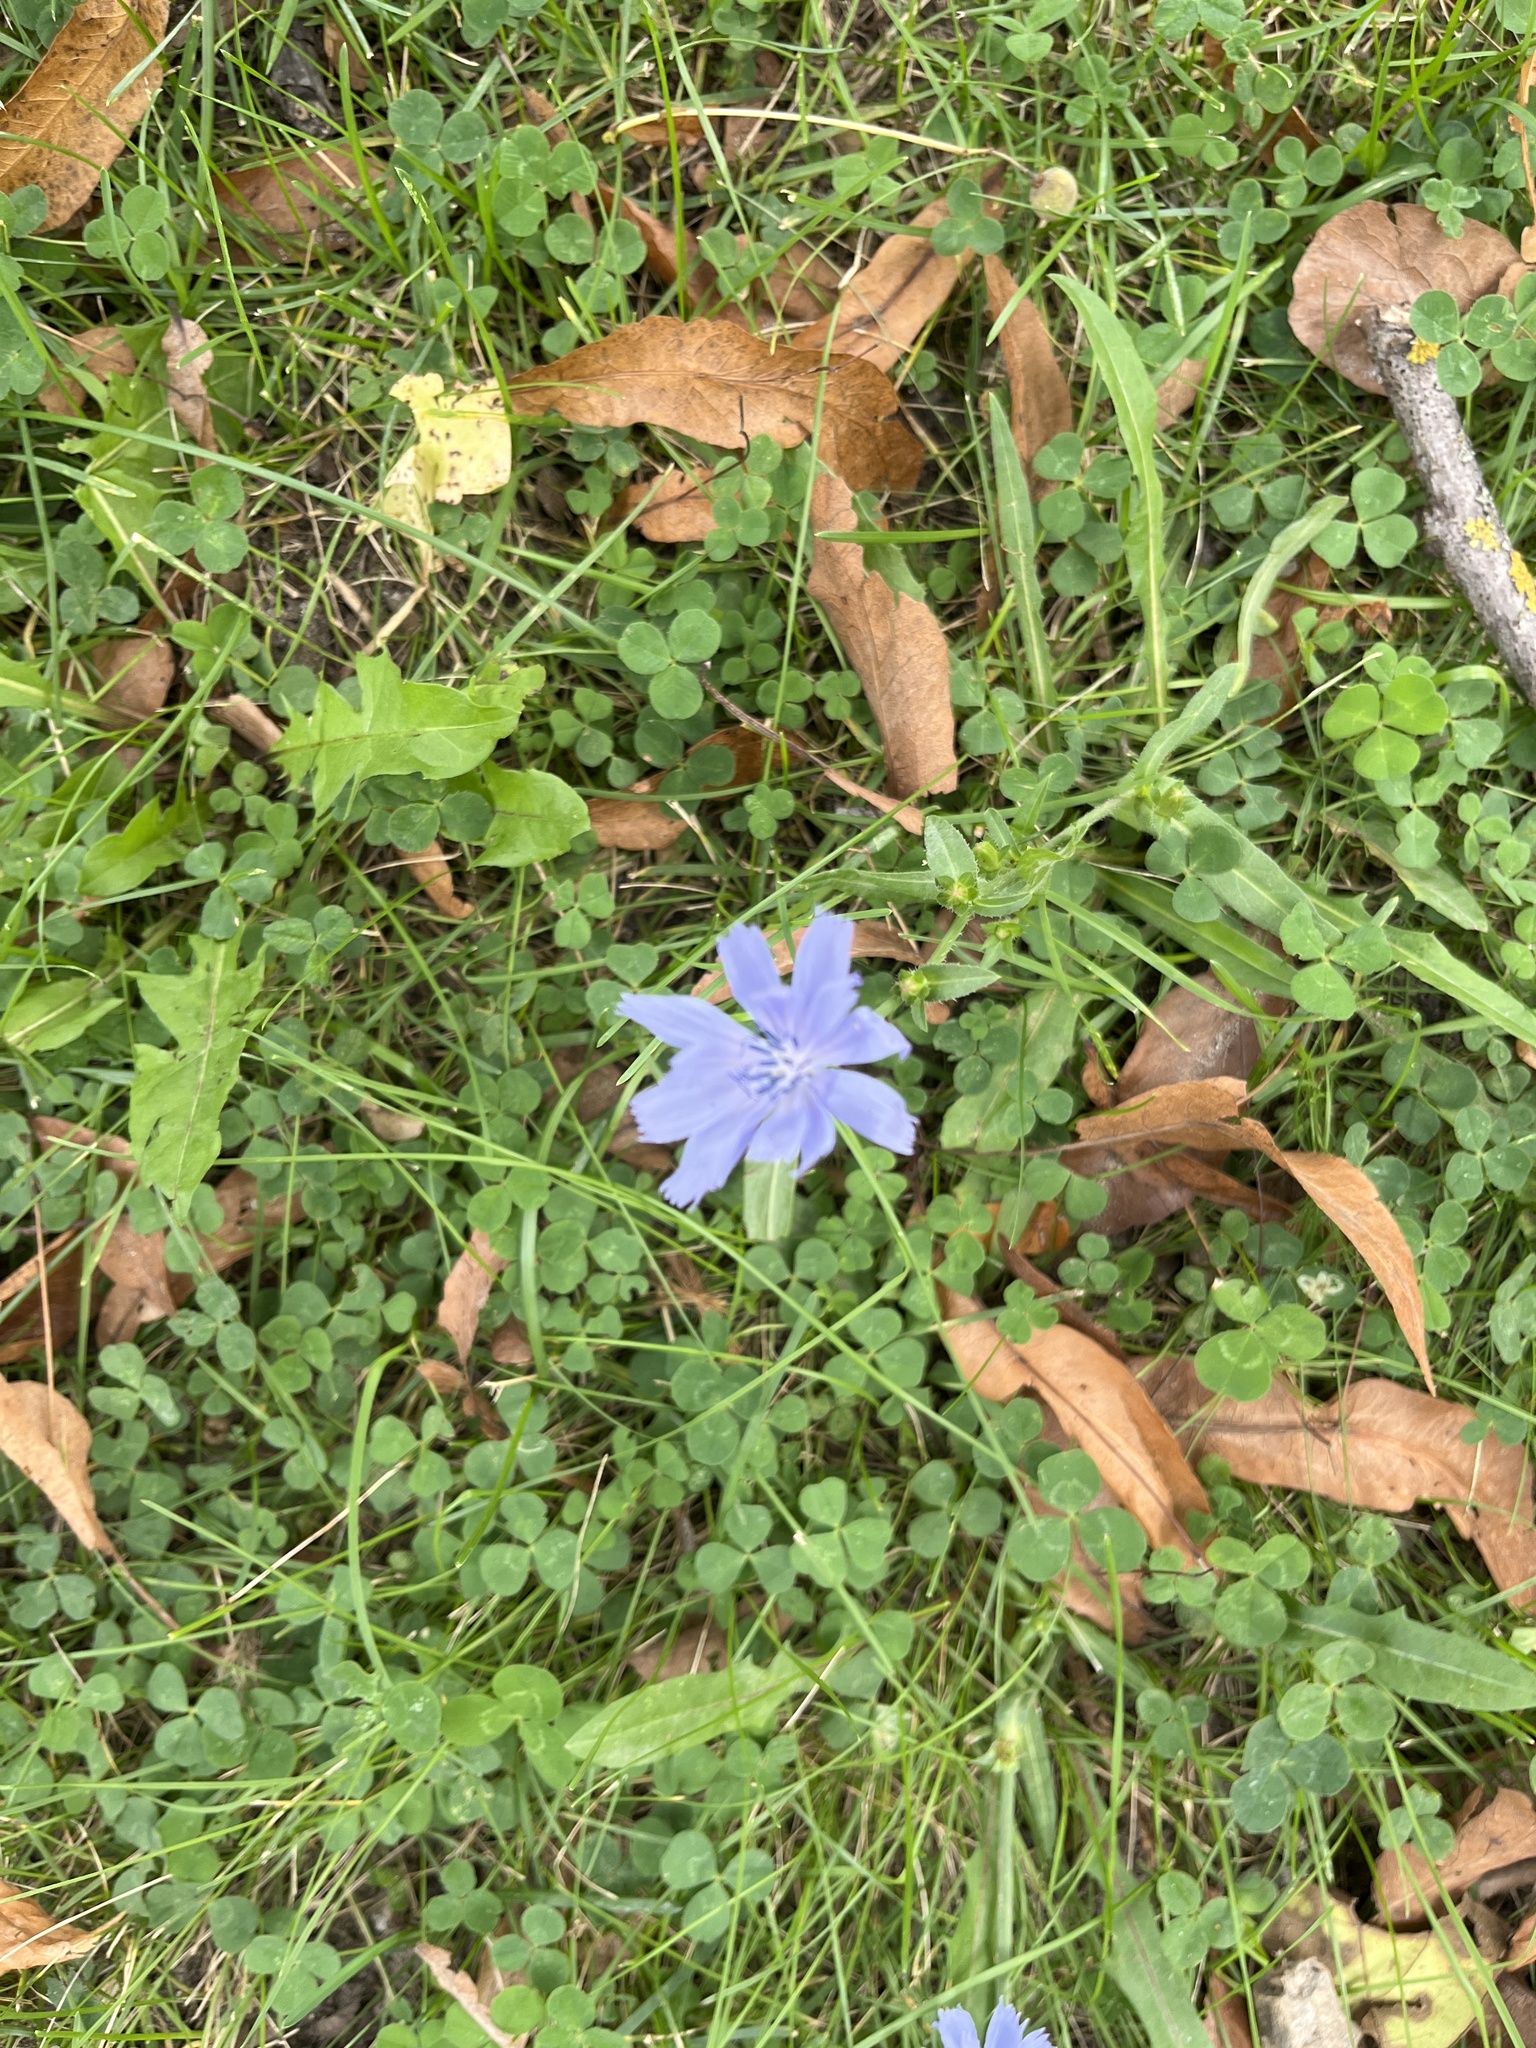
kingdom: Plantae
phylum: Tracheophyta
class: Magnoliopsida
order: Asterales
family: Asteraceae
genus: Cichorium
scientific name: Cichorium intybus
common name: Chicory
